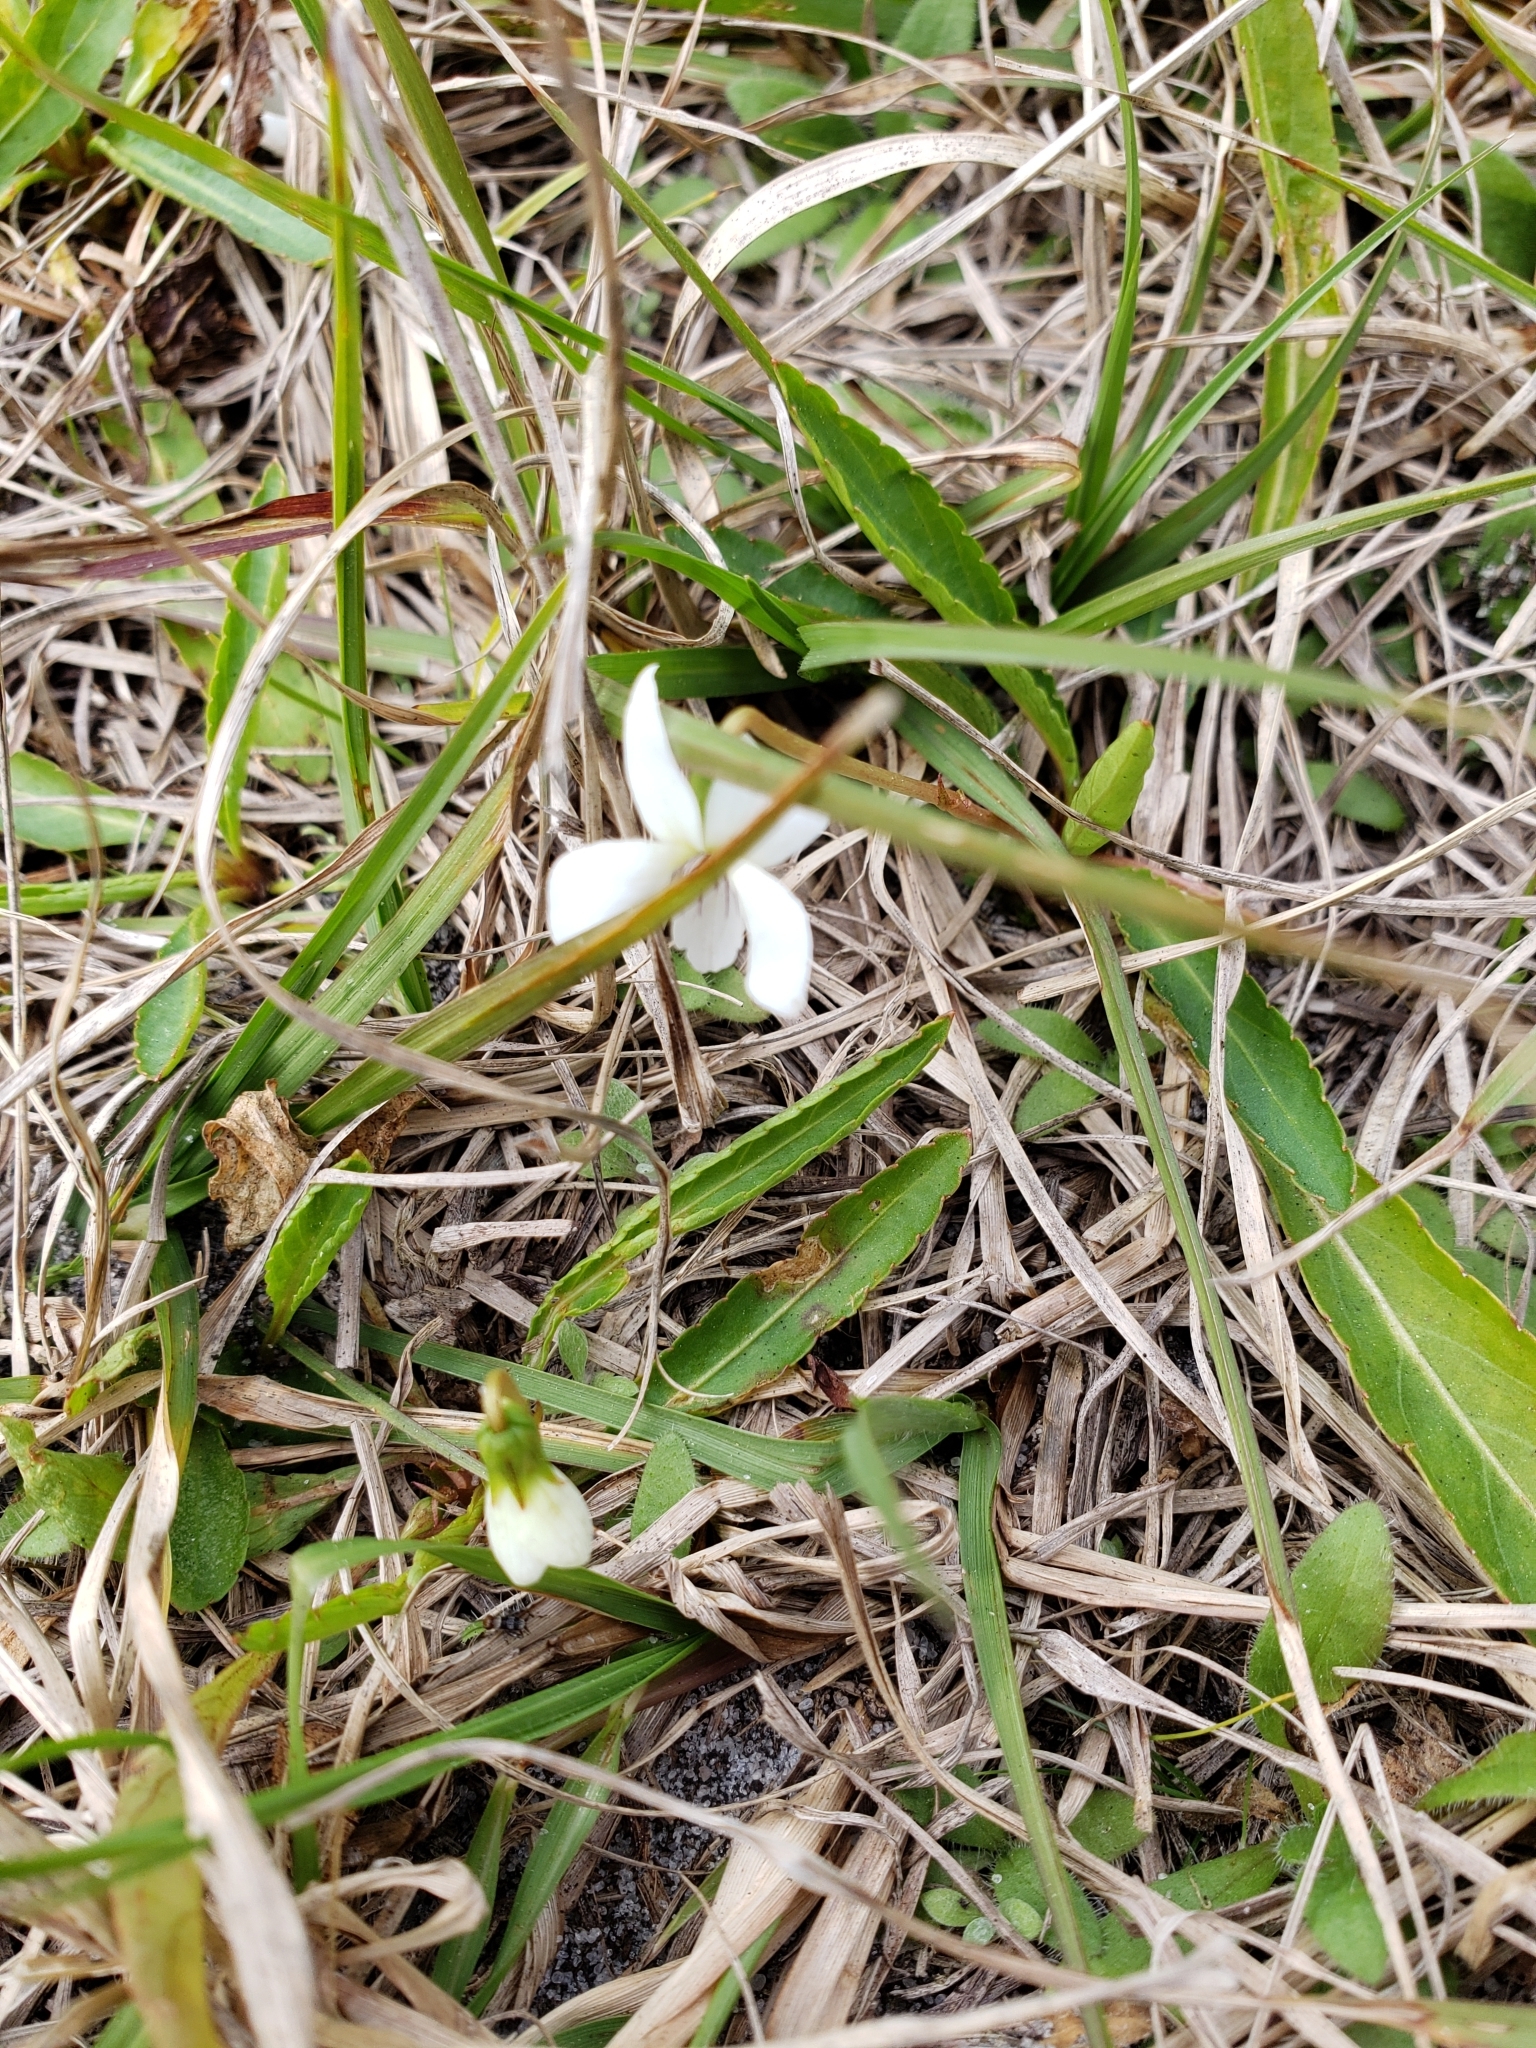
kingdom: Plantae
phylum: Tracheophyta
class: Magnoliopsida
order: Malpighiales
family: Violaceae
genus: Viola
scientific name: Viola lanceolata
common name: Bog white violet
